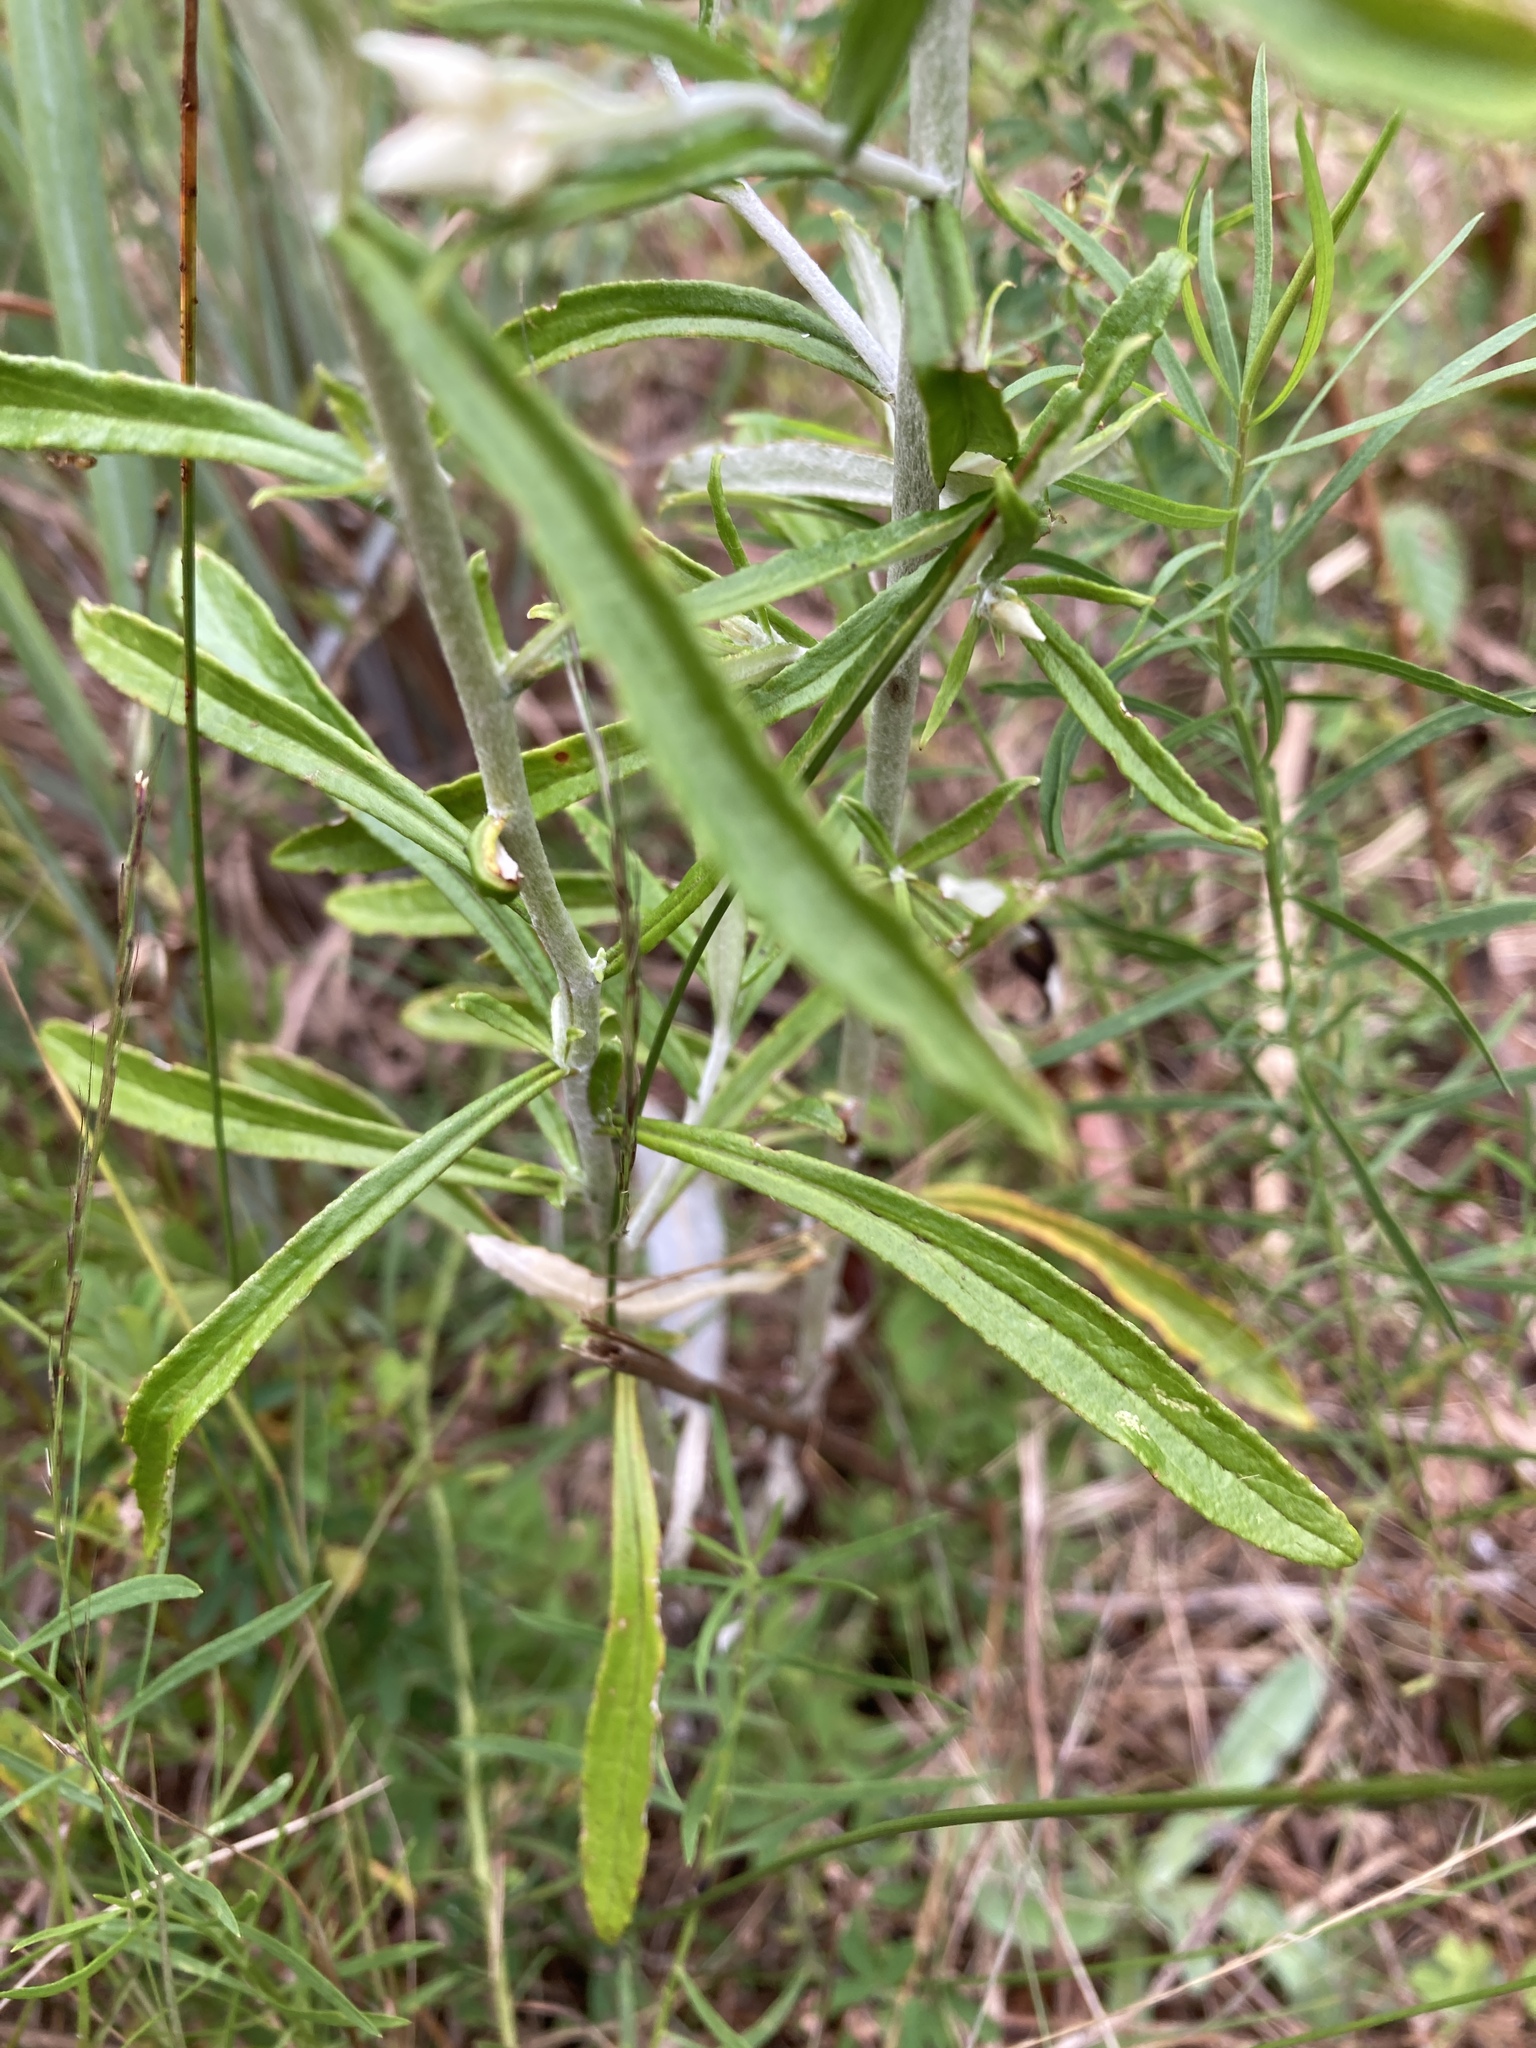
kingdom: Plantae
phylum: Tracheophyta
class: Magnoliopsida
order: Asterales
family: Asteraceae
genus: Pseudognaphalium
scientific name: Pseudognaphalium obtusifolium
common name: Eastern rabbit-tobacco
